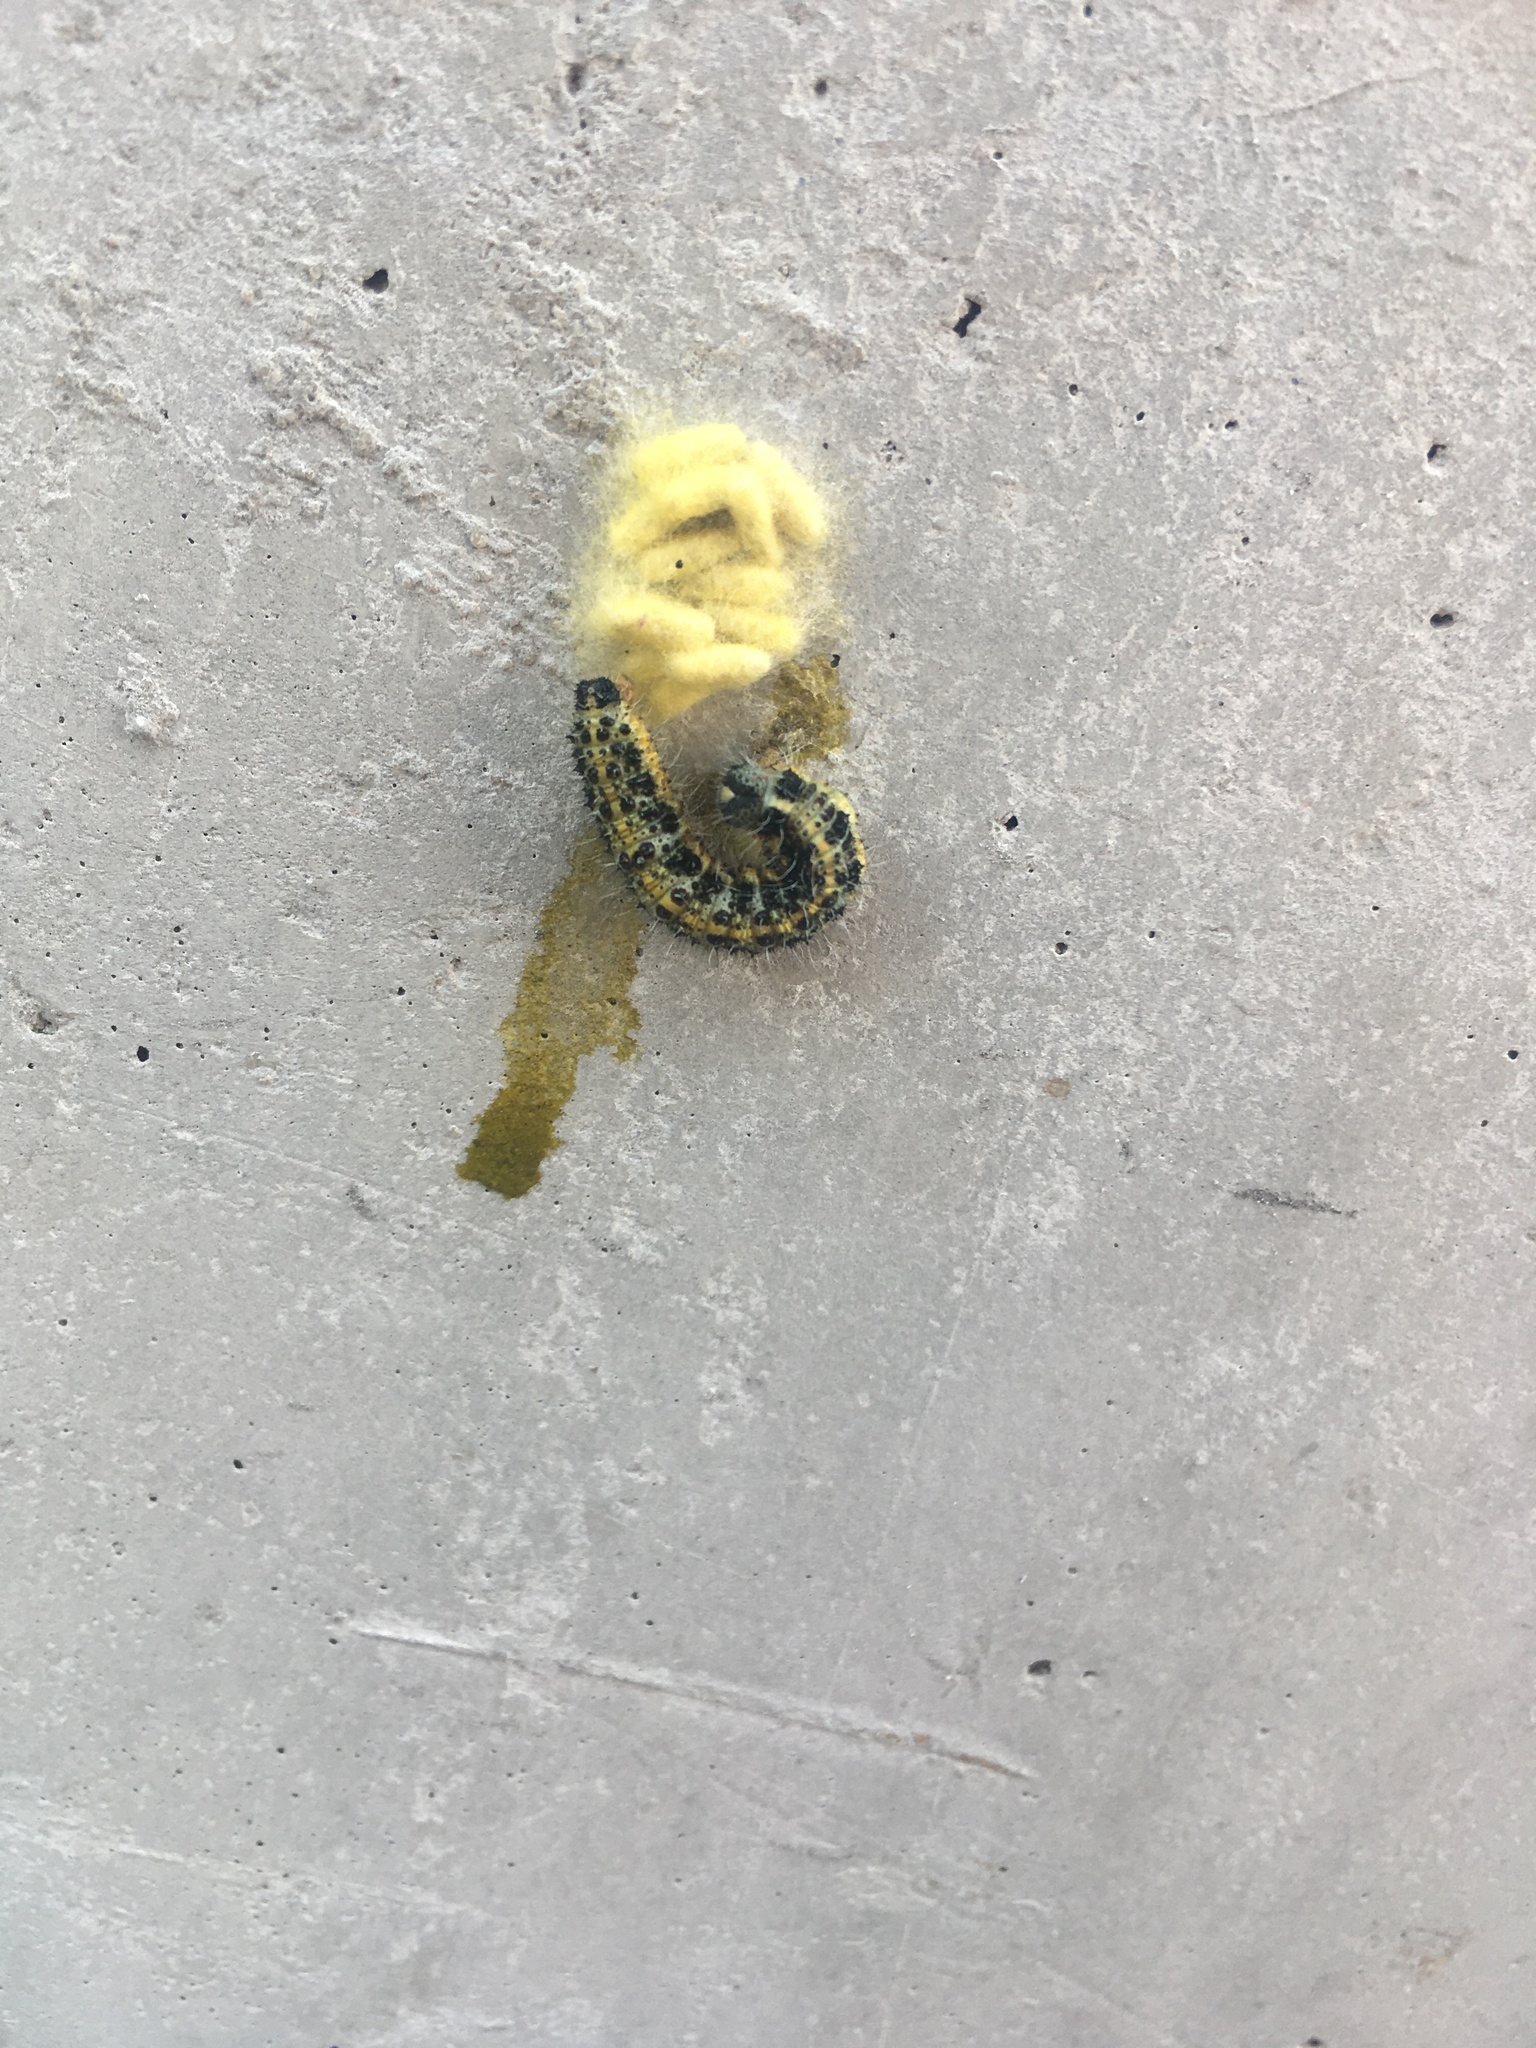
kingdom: Animalia
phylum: Arthropoda
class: Insecta
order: Lepidoptera
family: Pieridae
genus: Pieris
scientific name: Pieris brassicae
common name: Large white
